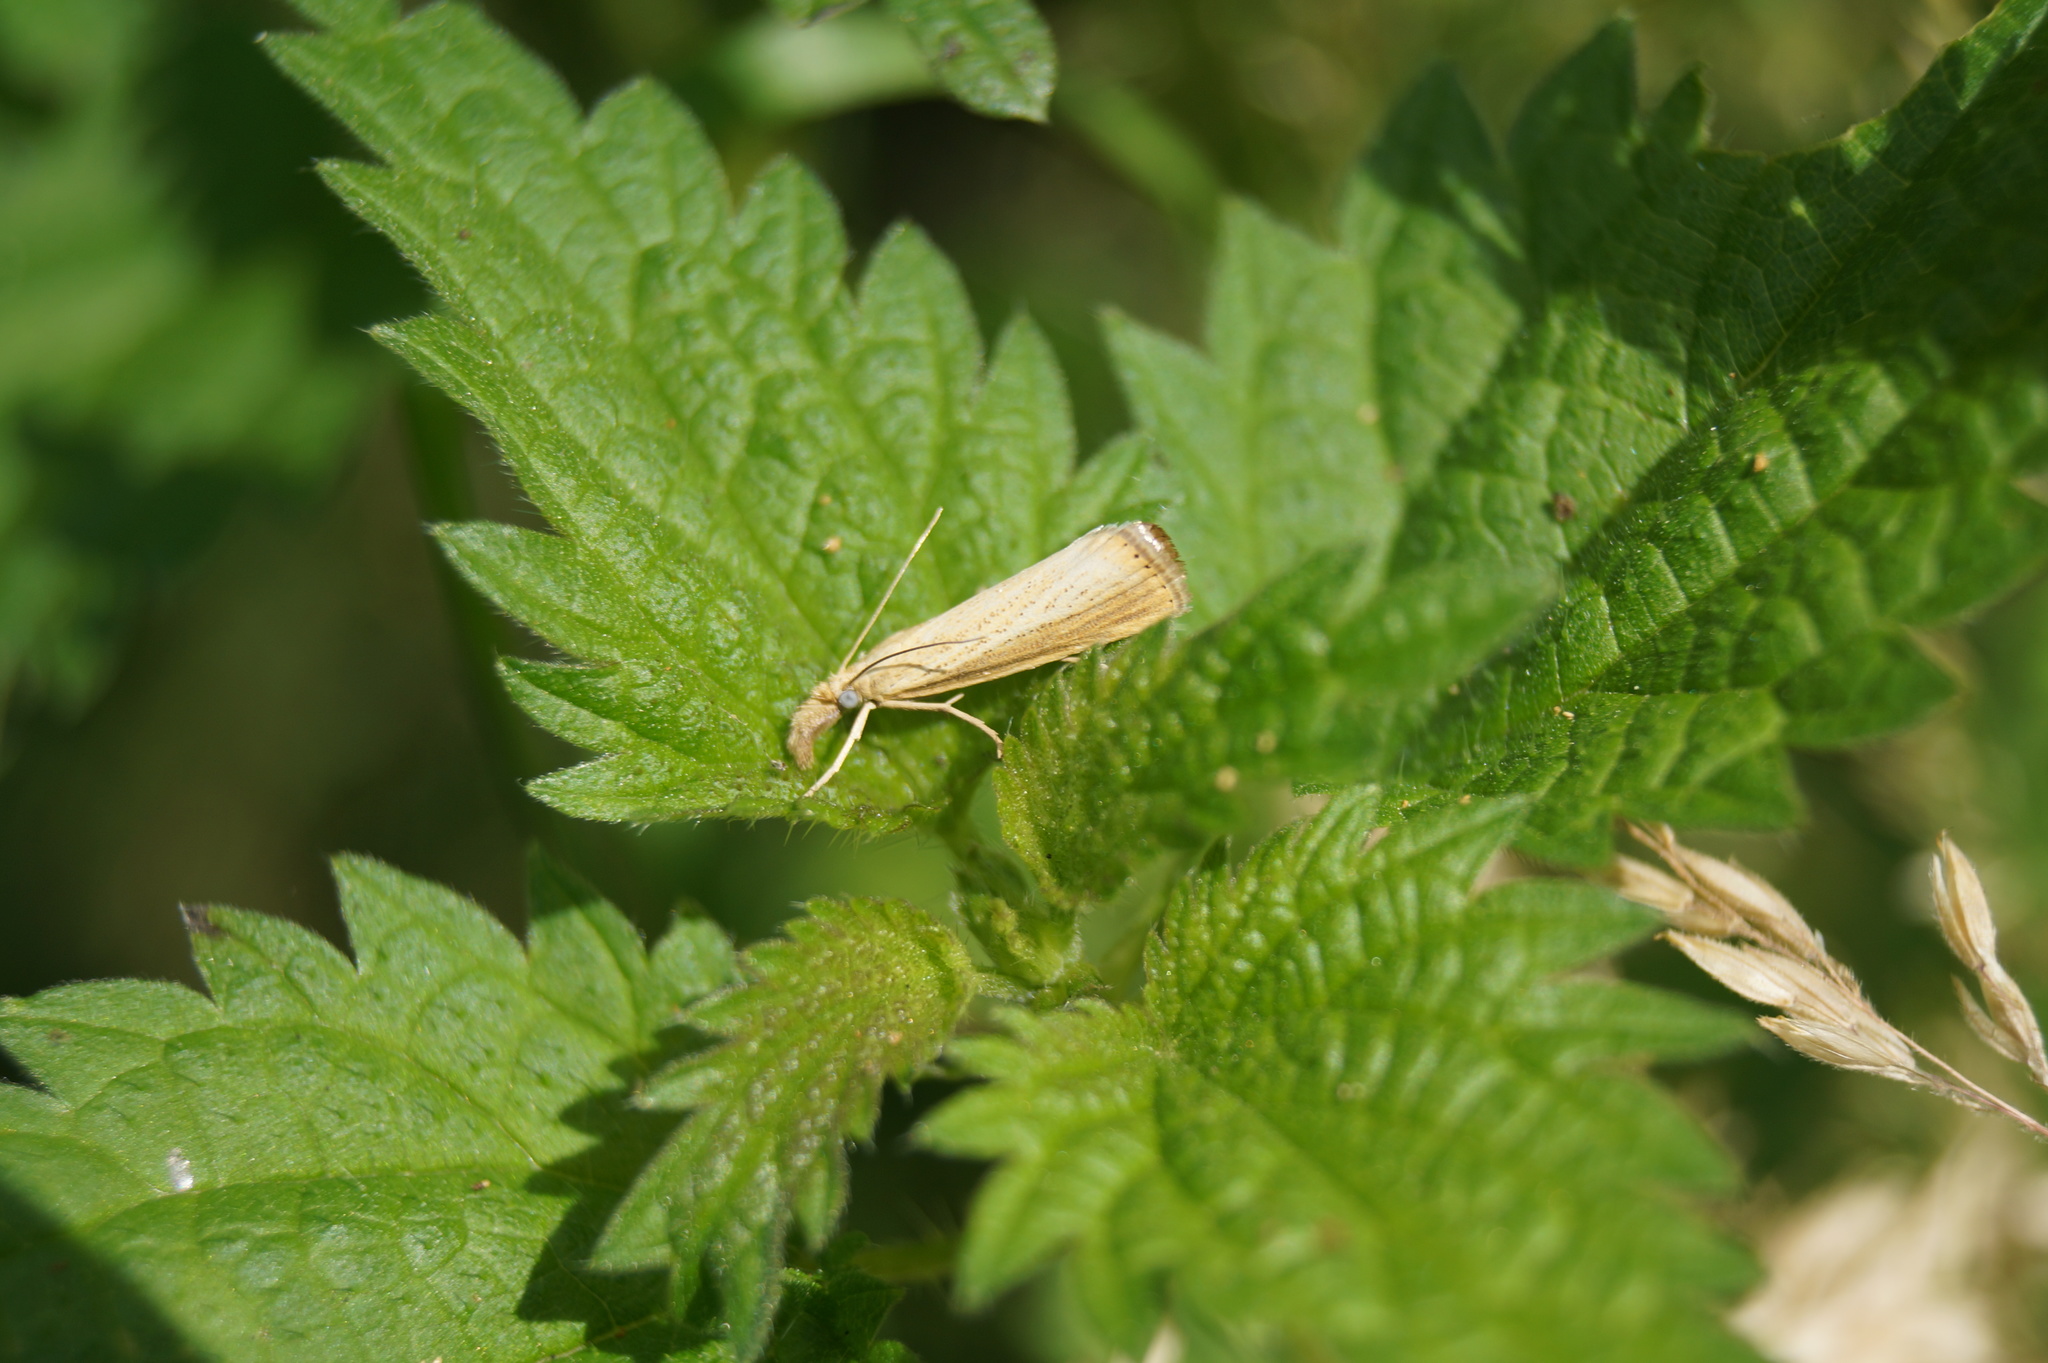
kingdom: Animalia
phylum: Arthropoda
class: Insecta
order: Lepidoptera
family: Crambidae
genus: Agriphila
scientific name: Agriphila straminella
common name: Straw grass-veneer
